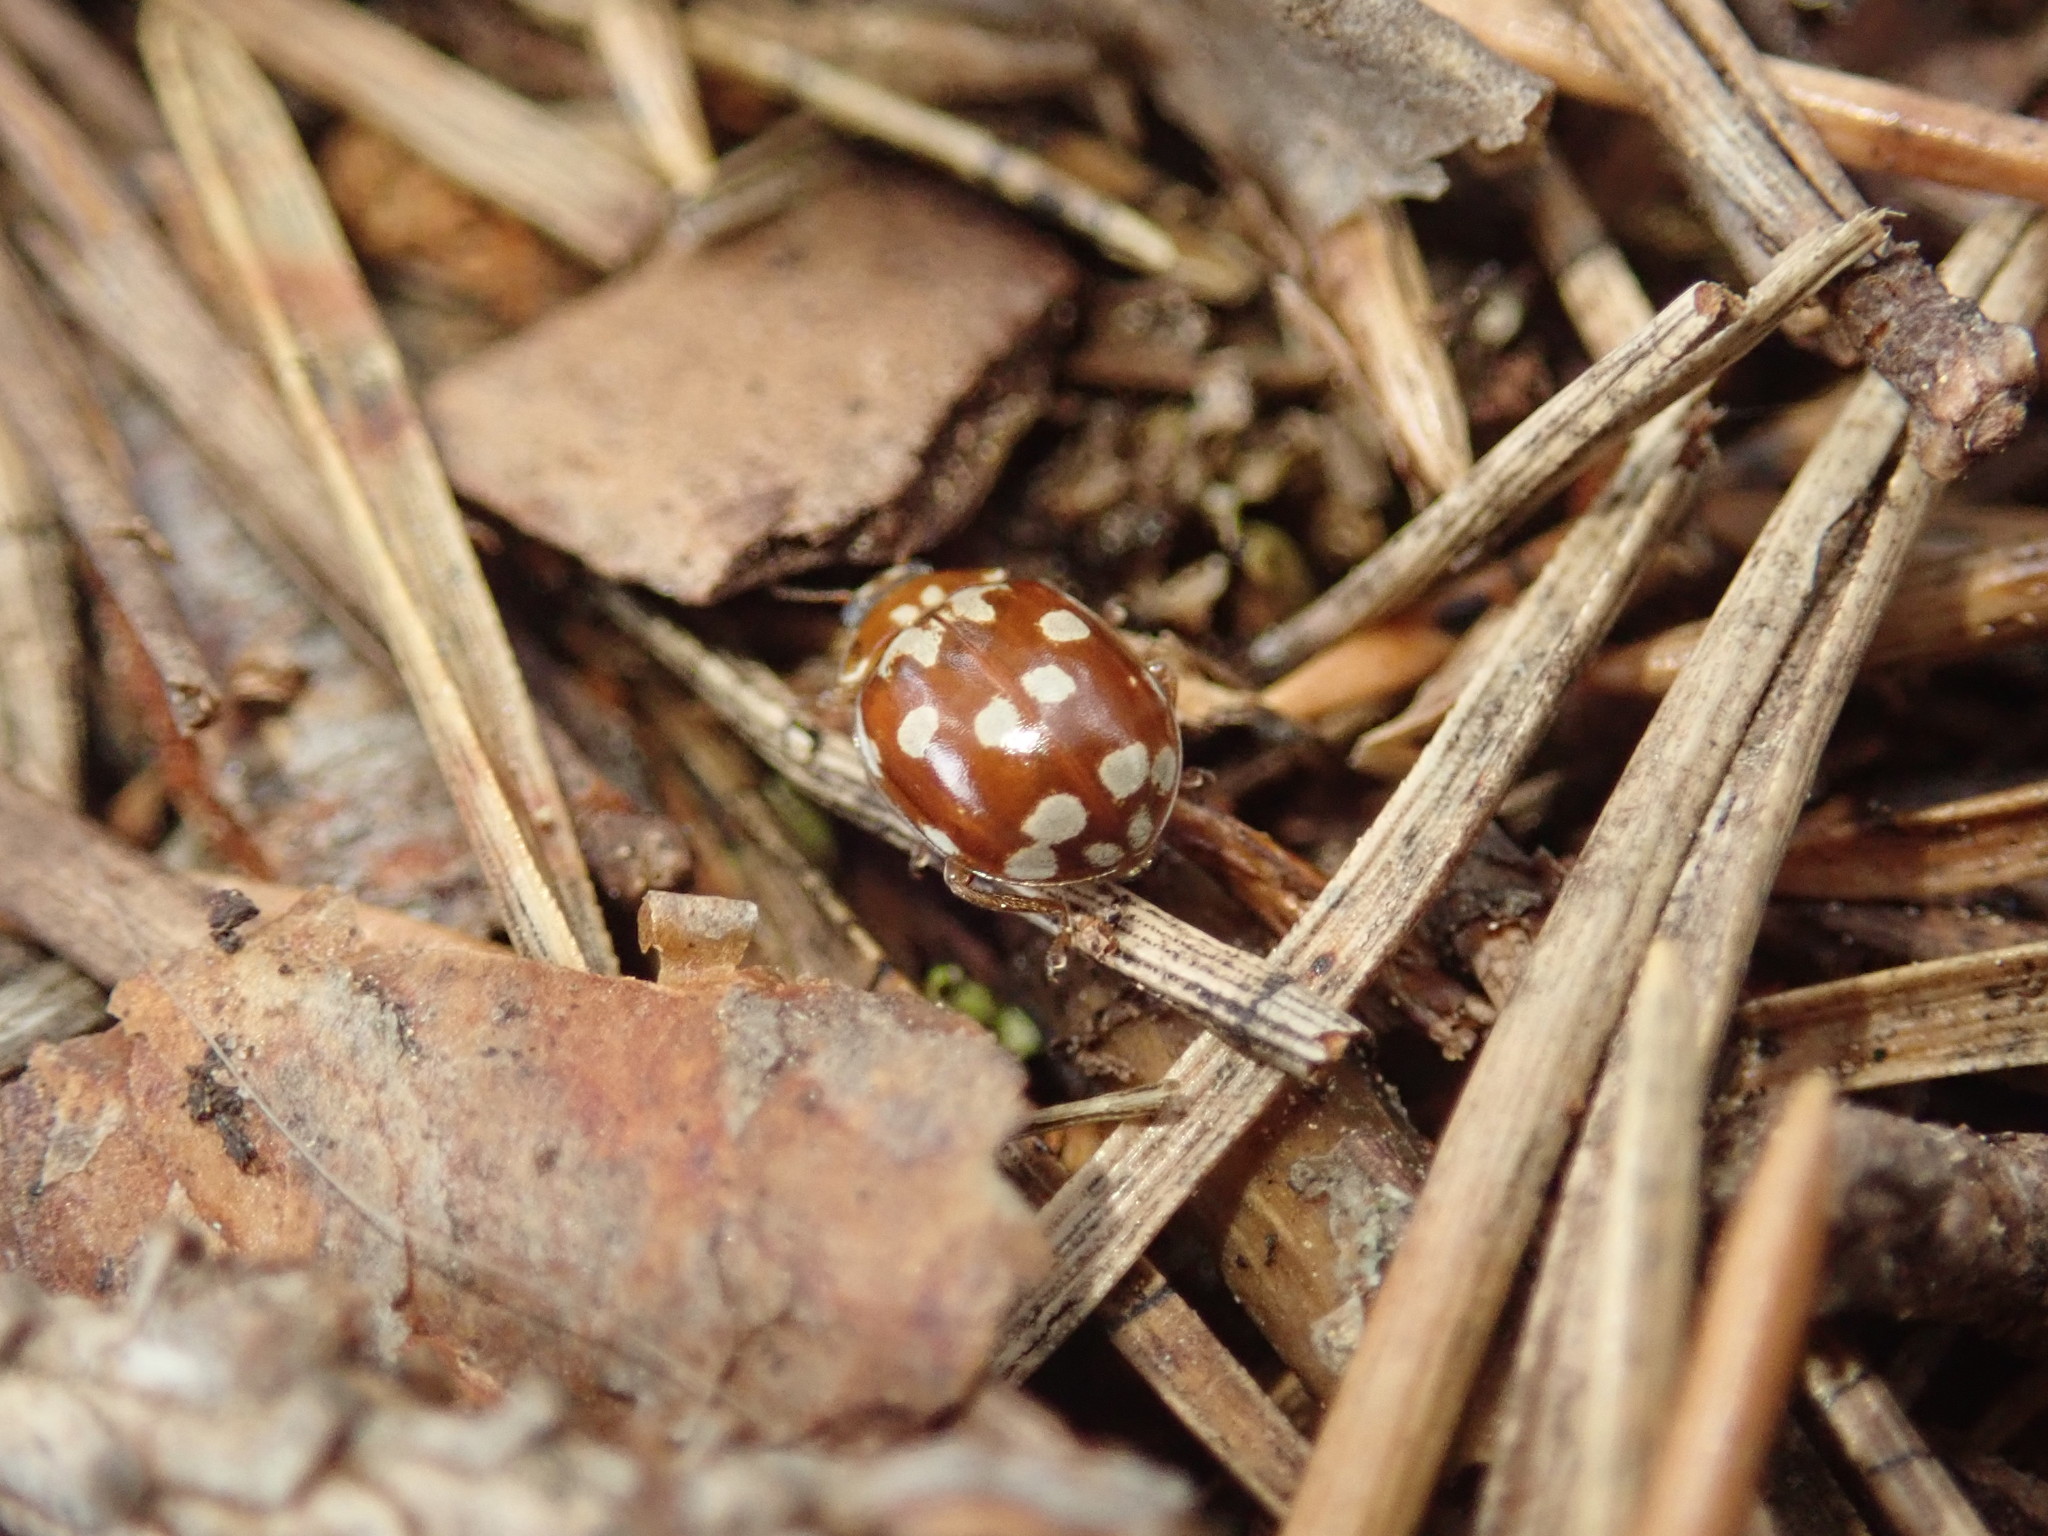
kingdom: Animalia
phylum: Arthropoda
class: Insecta
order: Coleoptera
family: Coccinellidae
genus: Myrrha
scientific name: Myrrha octodecimguttata
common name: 18-spot ladybird
